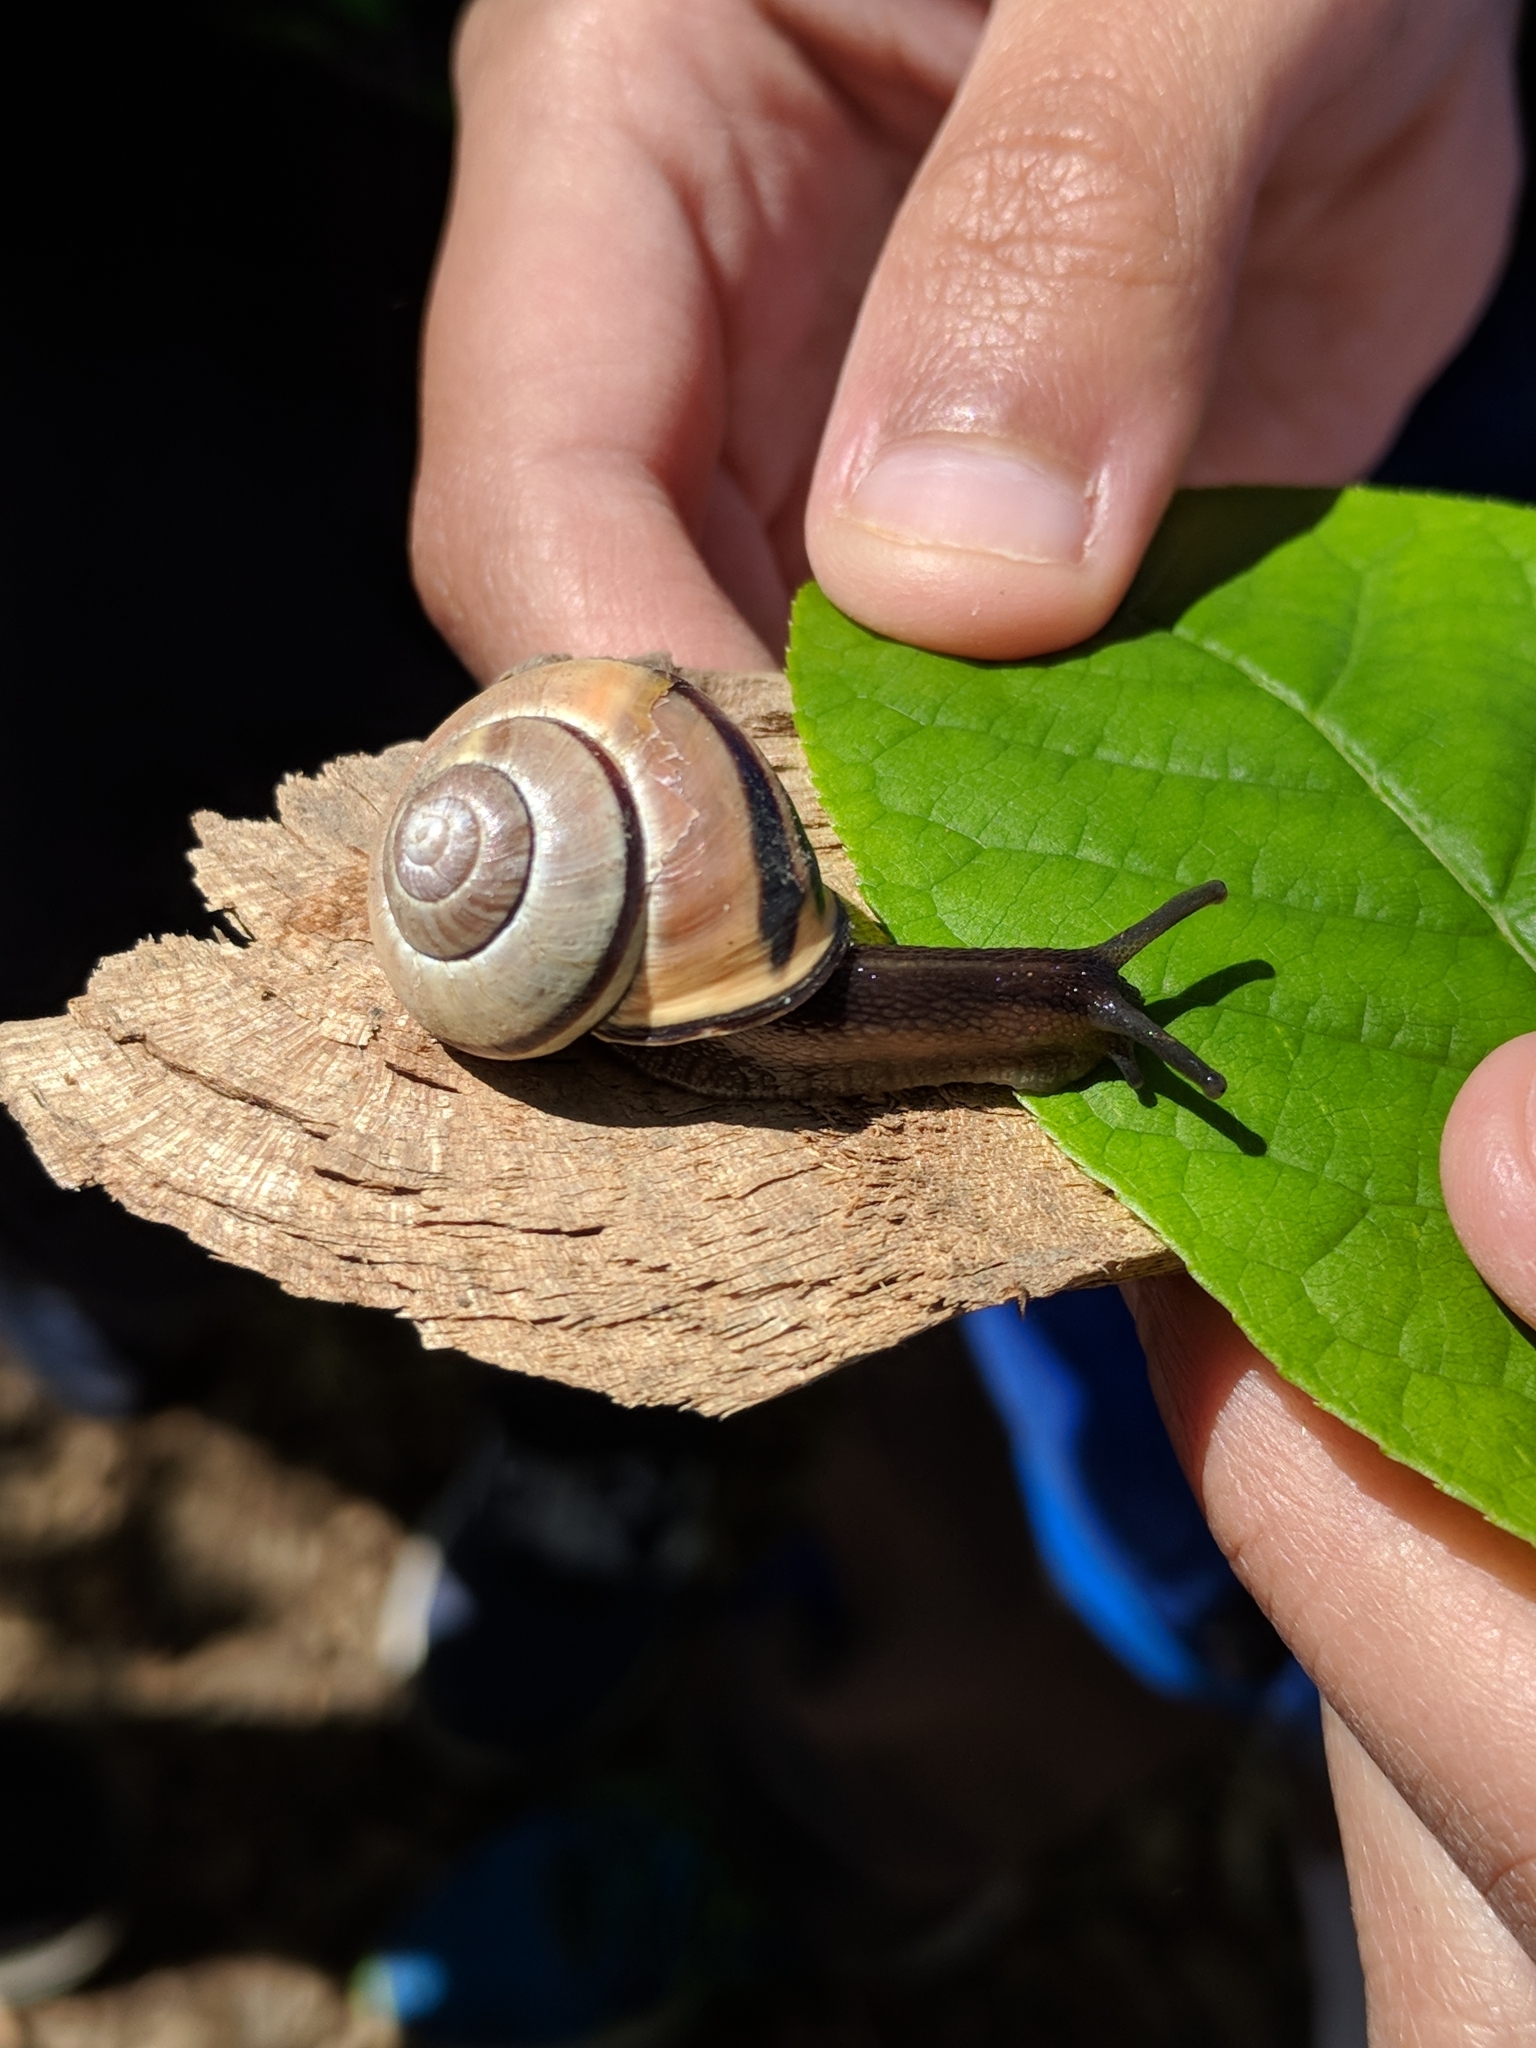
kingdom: Animalia
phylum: Mollusca
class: Gastropoda
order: Stylommatophora
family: Helicidae
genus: Cepaea
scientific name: Cepaea nemoralis
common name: Grovesnail
